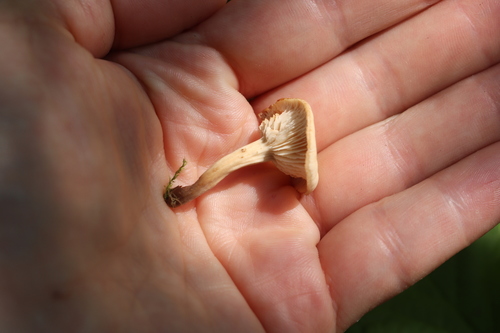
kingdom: Fungi
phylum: Basidiomycota
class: Agaricomycetes
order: Russulales
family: Auriscalpiaceae
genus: Lentinellus
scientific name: Lentinellus micheneri
